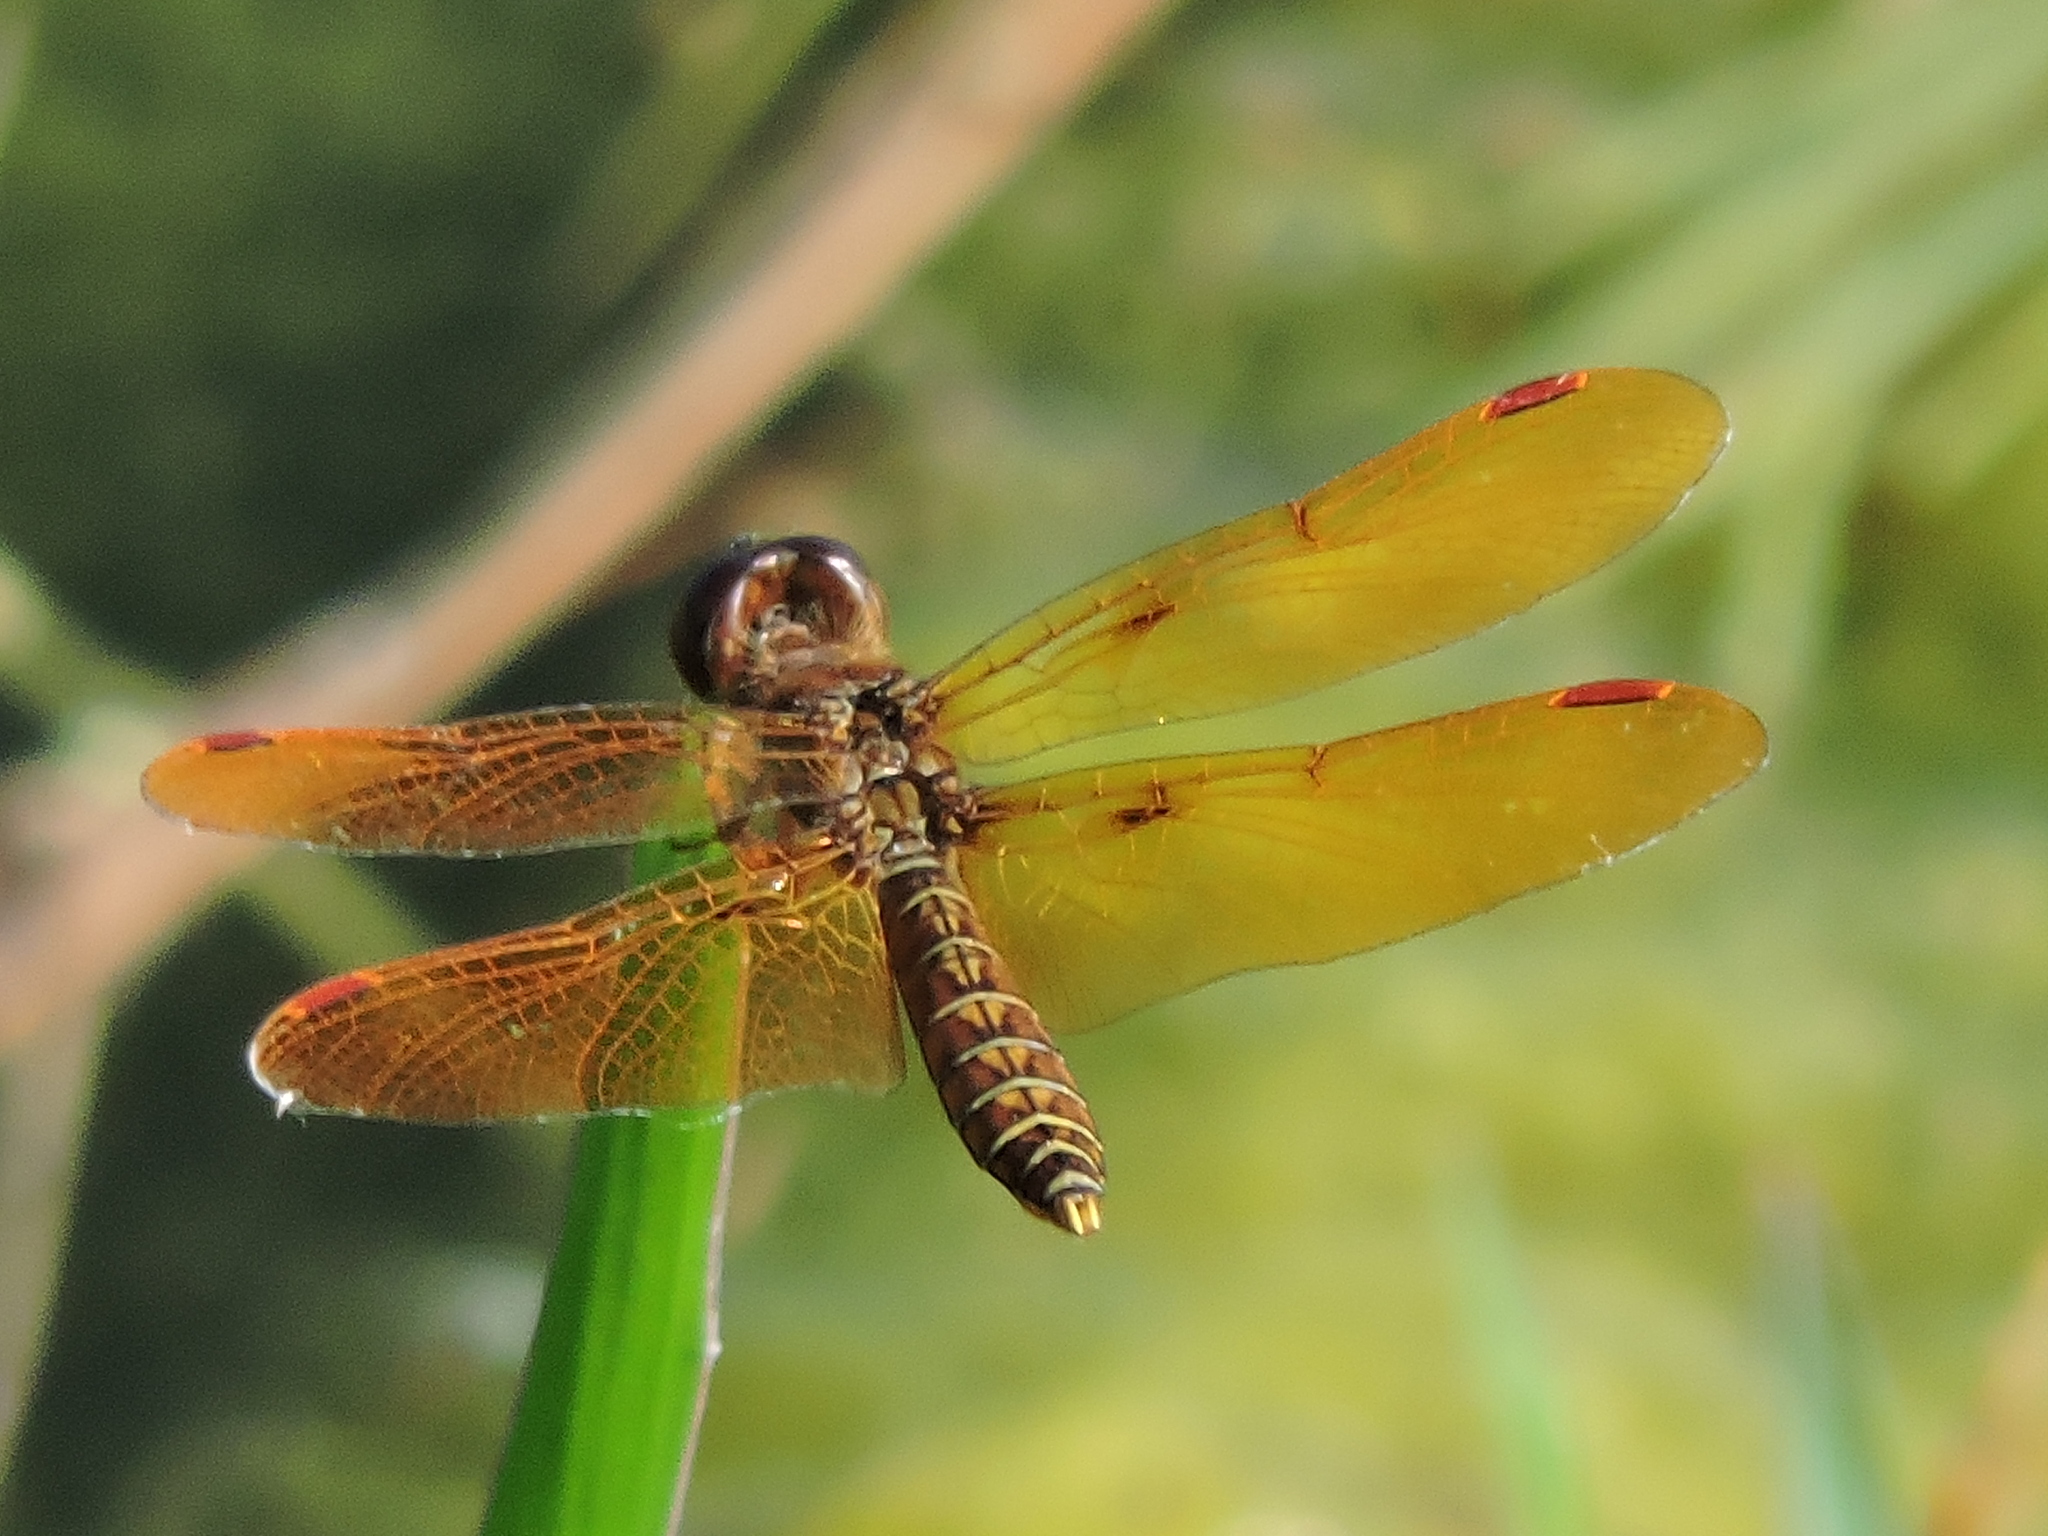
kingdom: Animalia
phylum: Arthropoda
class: Insecta
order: Odonata
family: Libellulidae
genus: Perithemis
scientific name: Perithemis tenera
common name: Eastern amberwing
